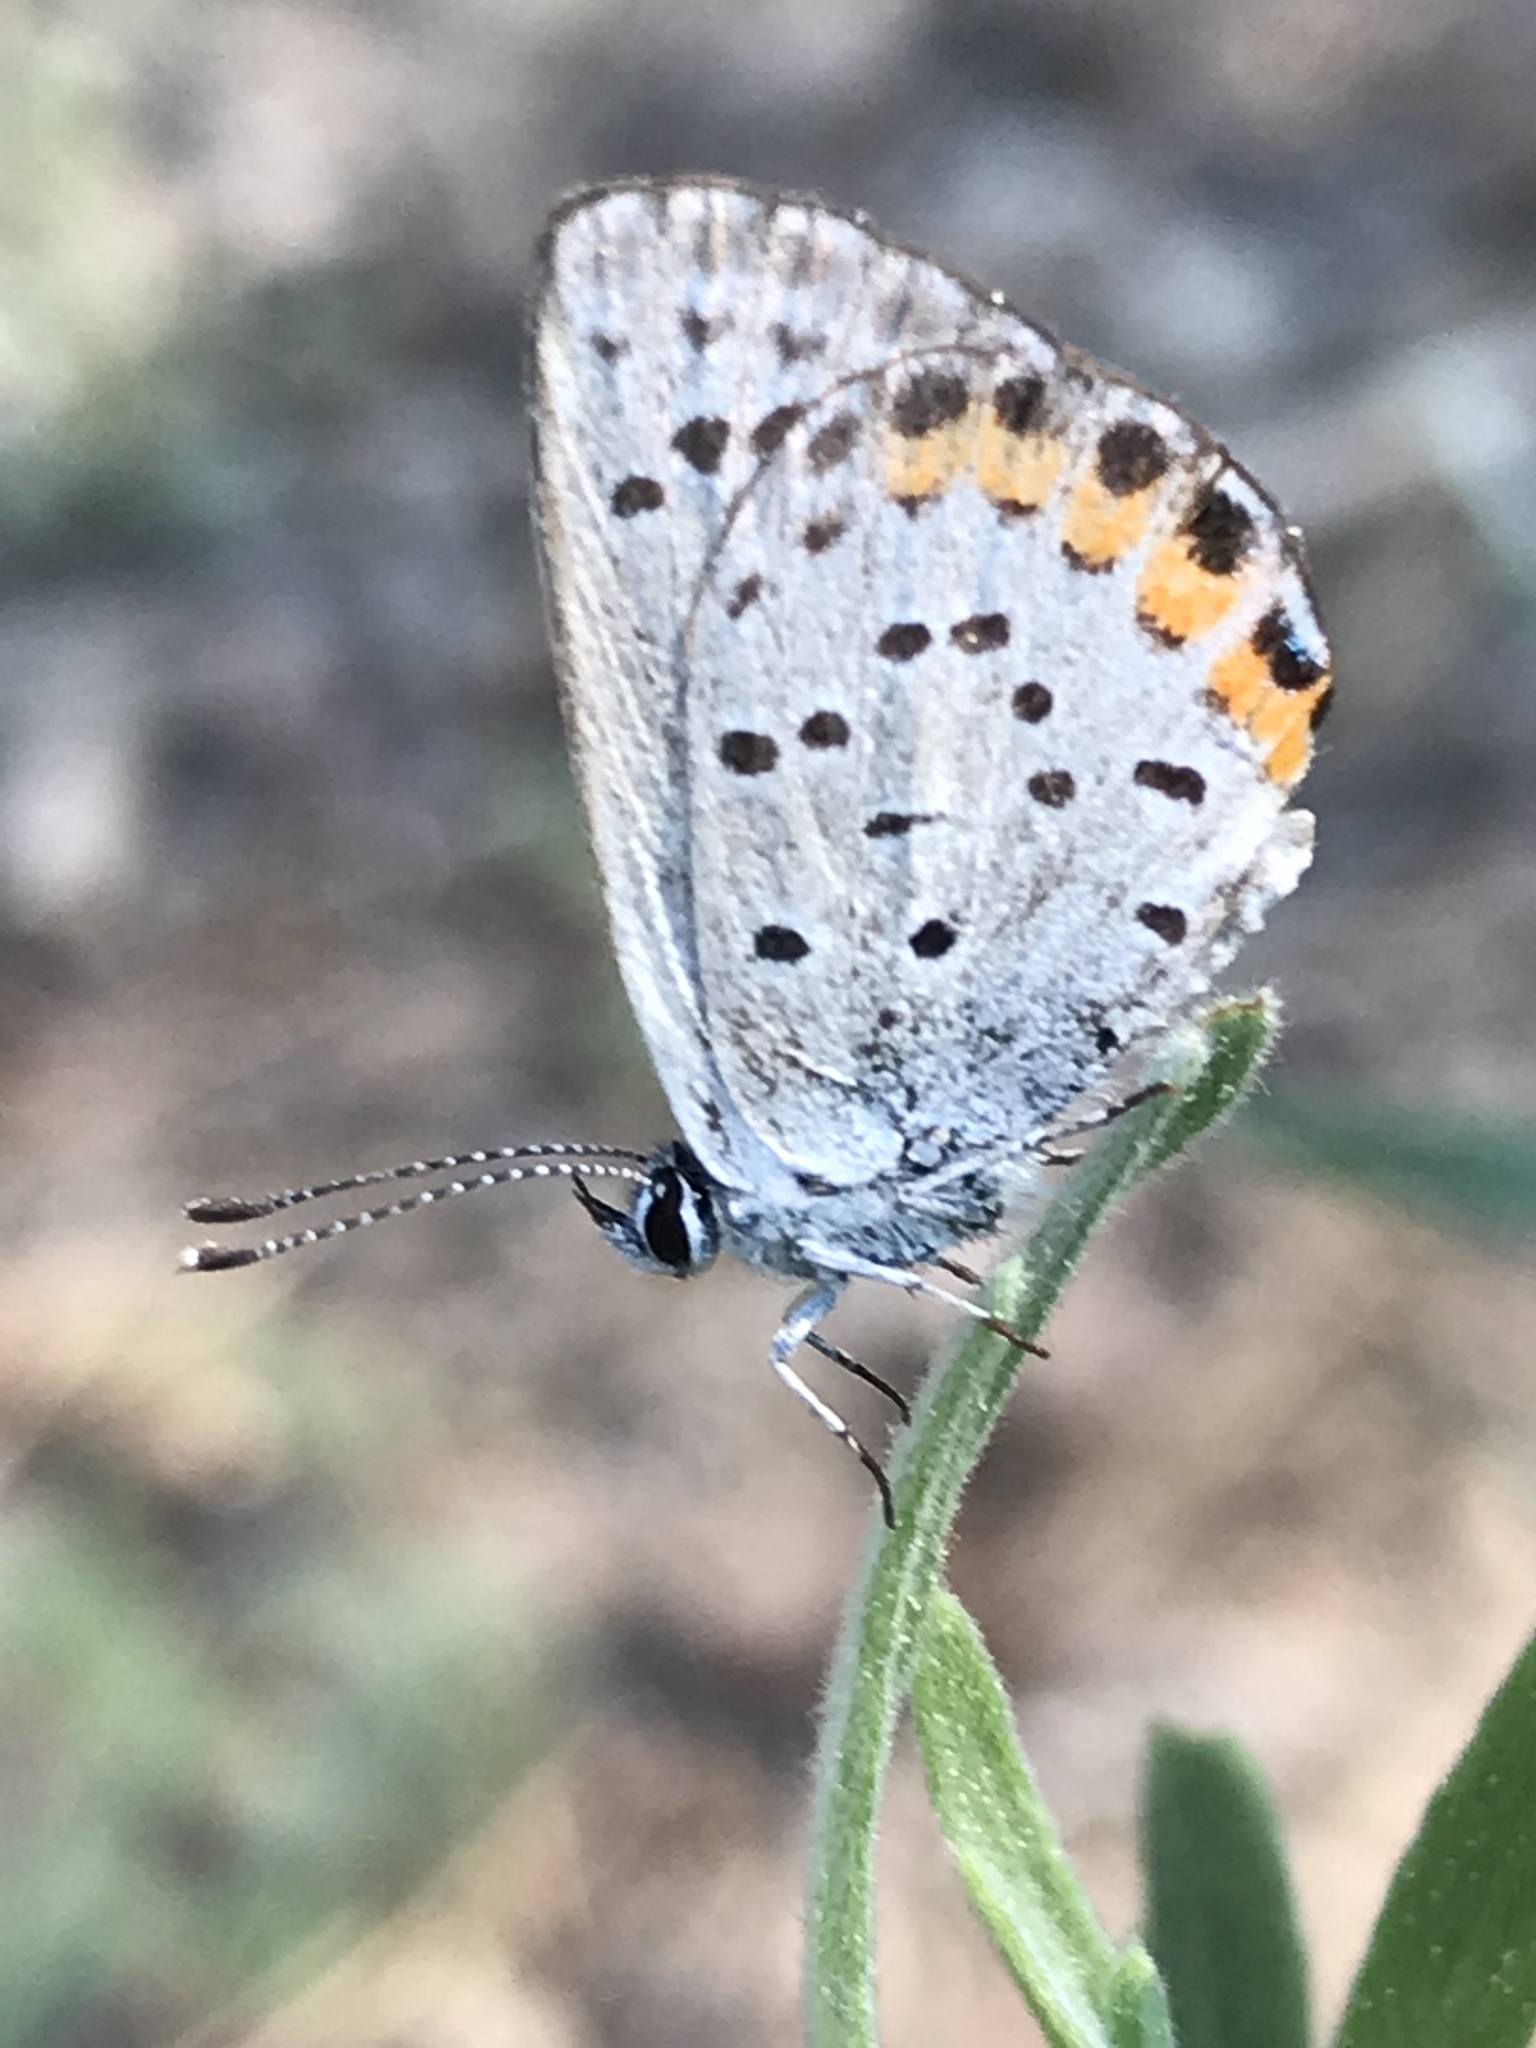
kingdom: Animalia
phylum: Arthropoda
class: Insecta
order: Lepidoptera
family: Lycaenidae
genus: Icaricia
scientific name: Icaricia lupini
